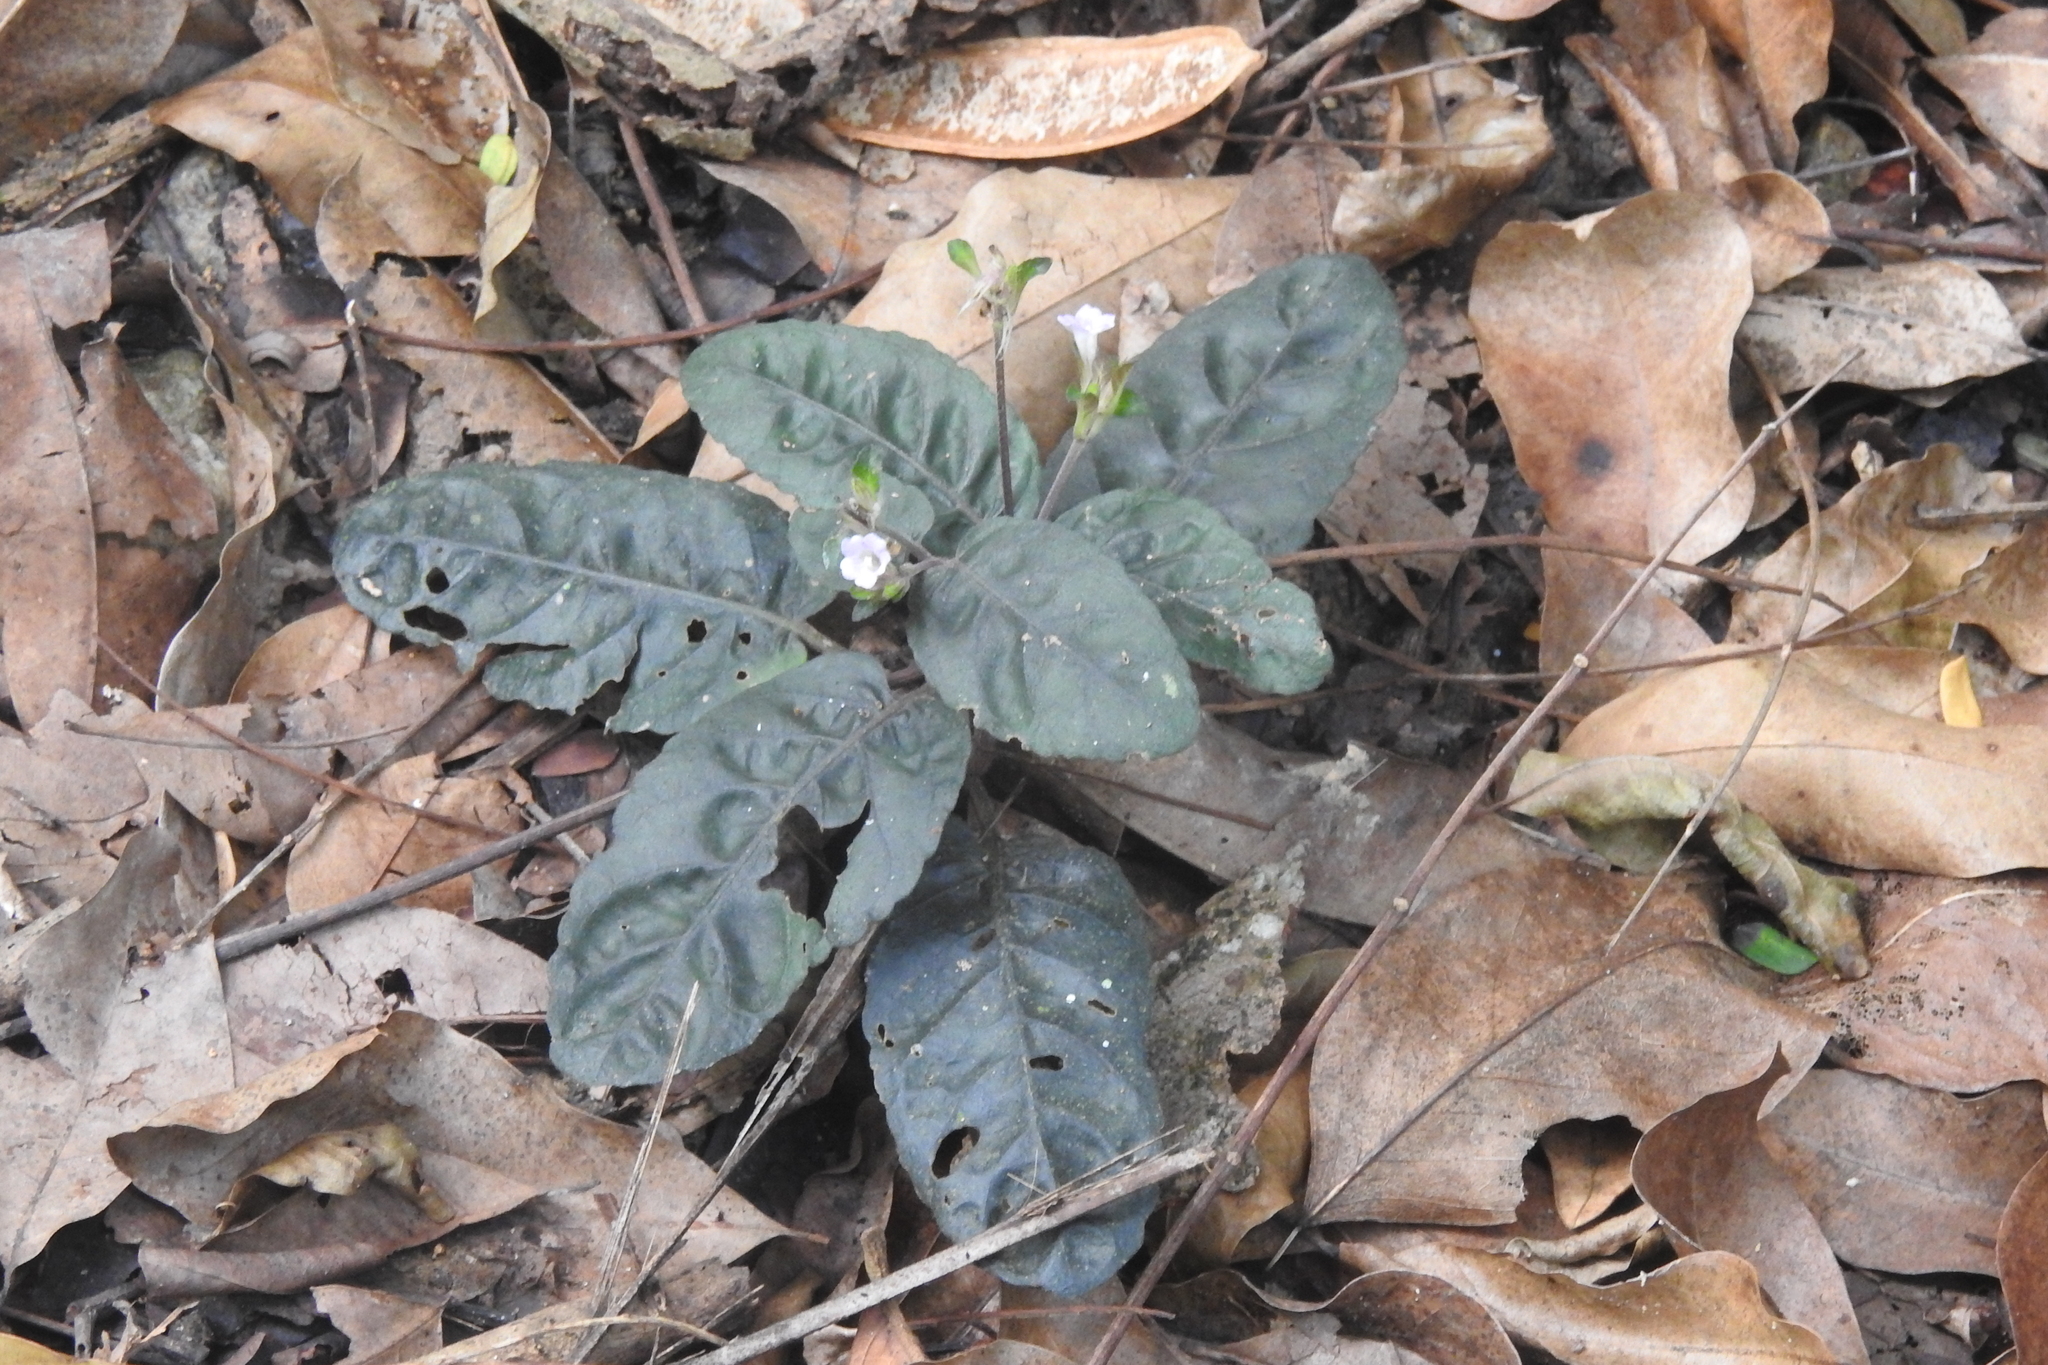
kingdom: Plantae
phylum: Tracheophyta
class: Magnoliopsida
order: Lamiales
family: Acanthaceae
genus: Strobilanthes
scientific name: Strobilanthes reptans
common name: Acanthaceae
